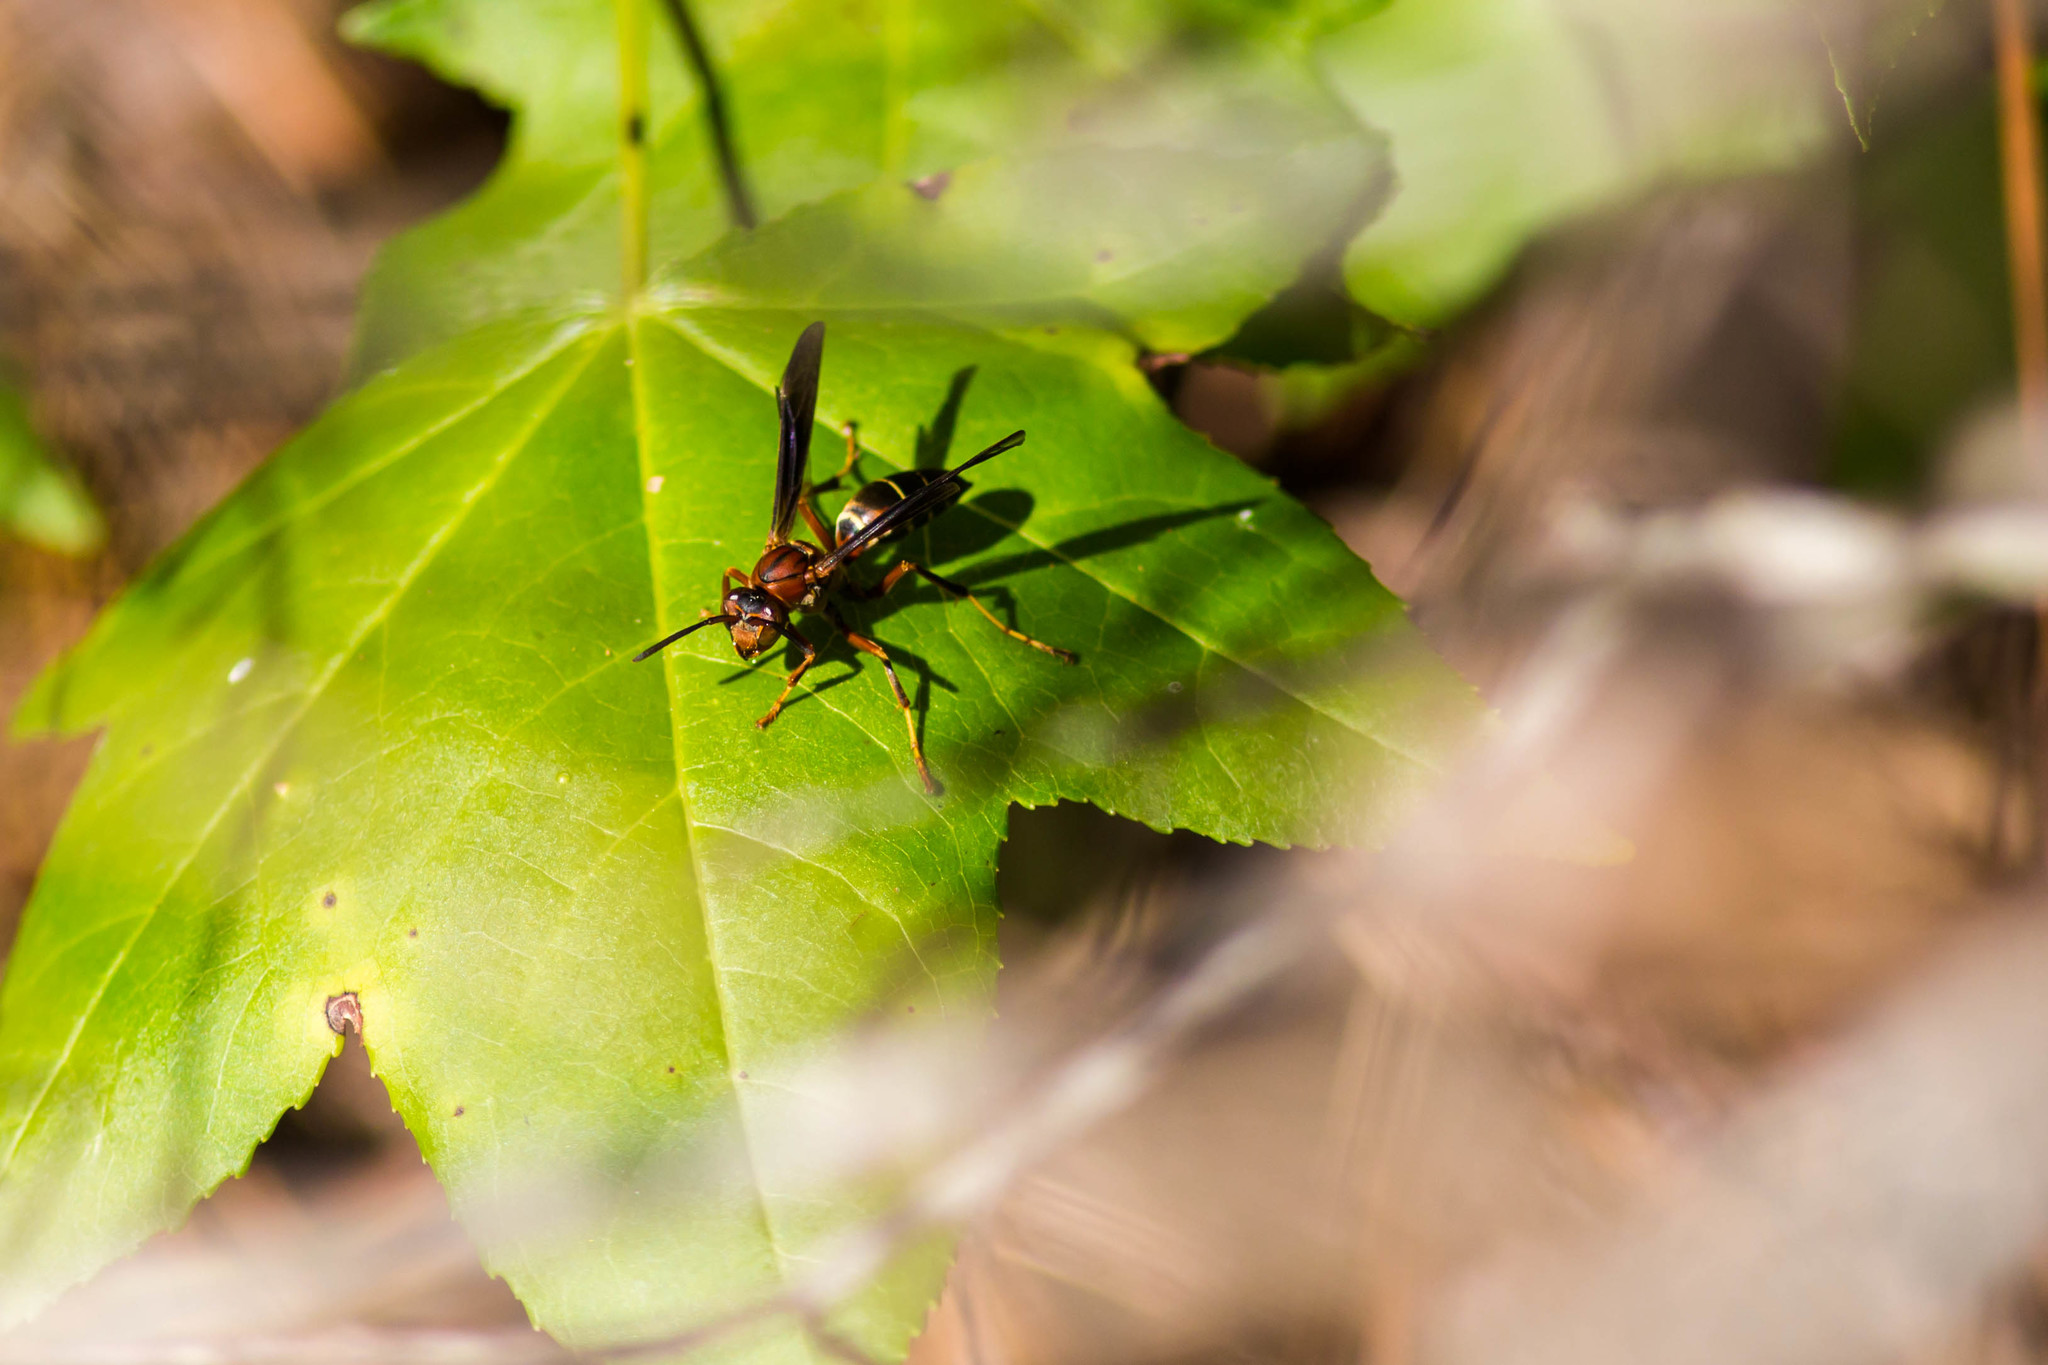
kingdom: Animalia
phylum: Arthropoda
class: Insecta
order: Hymenoptera
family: Eumenidae
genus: Polistes
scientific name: Polistes fuscatus
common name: Dark paper wasp
